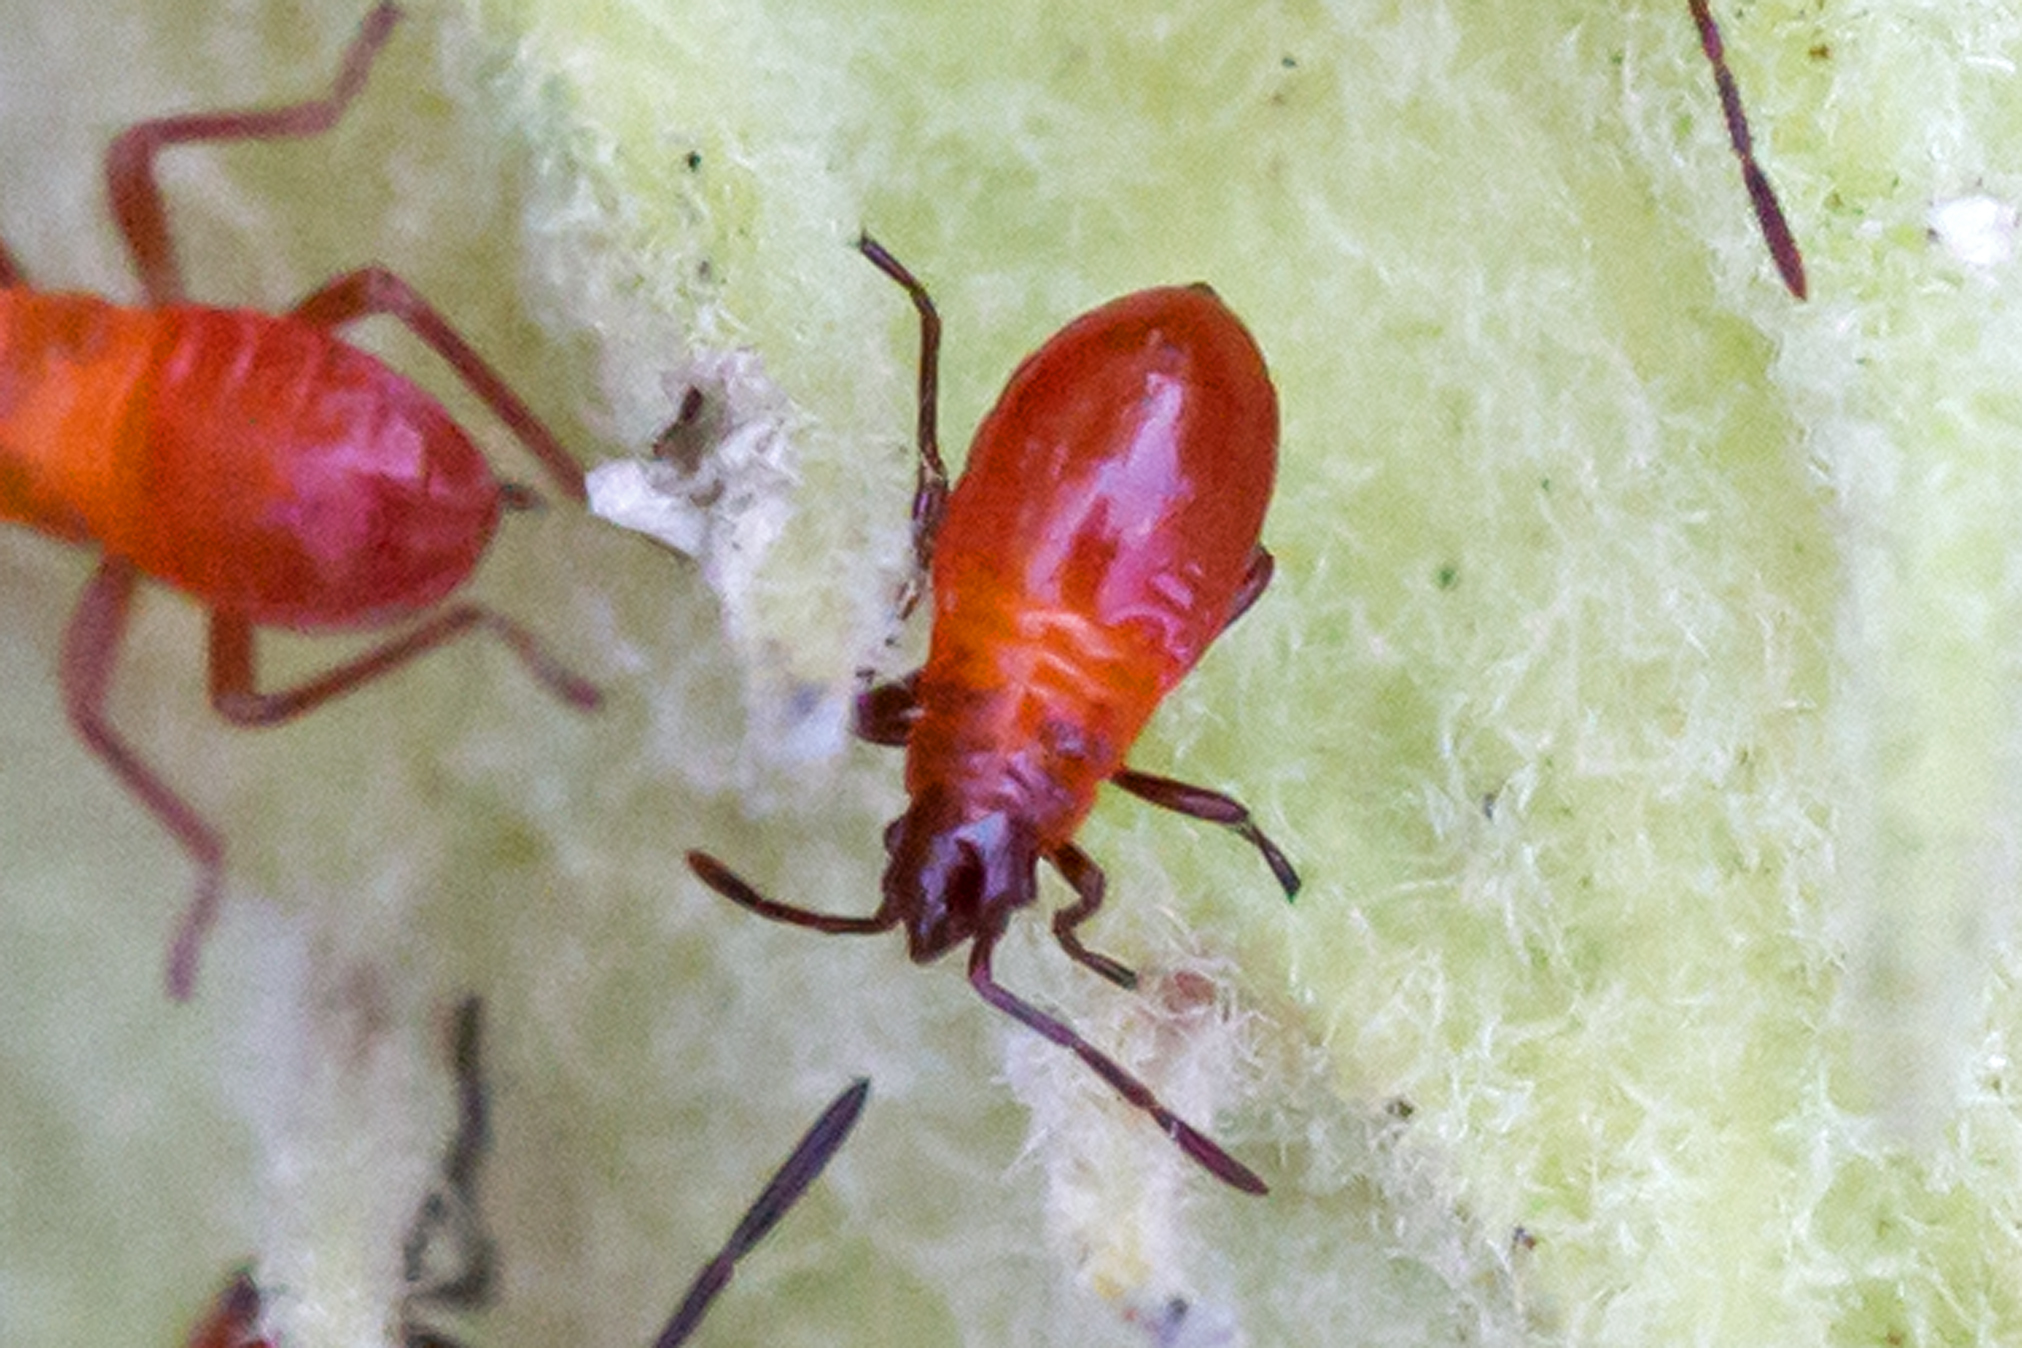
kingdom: Animalia
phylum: Arthropoda
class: Insecta
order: Hemiptera
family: Lygaeidae
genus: Oncopeltus
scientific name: Oncopeltus fasciatus
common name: Large milkweed bug
